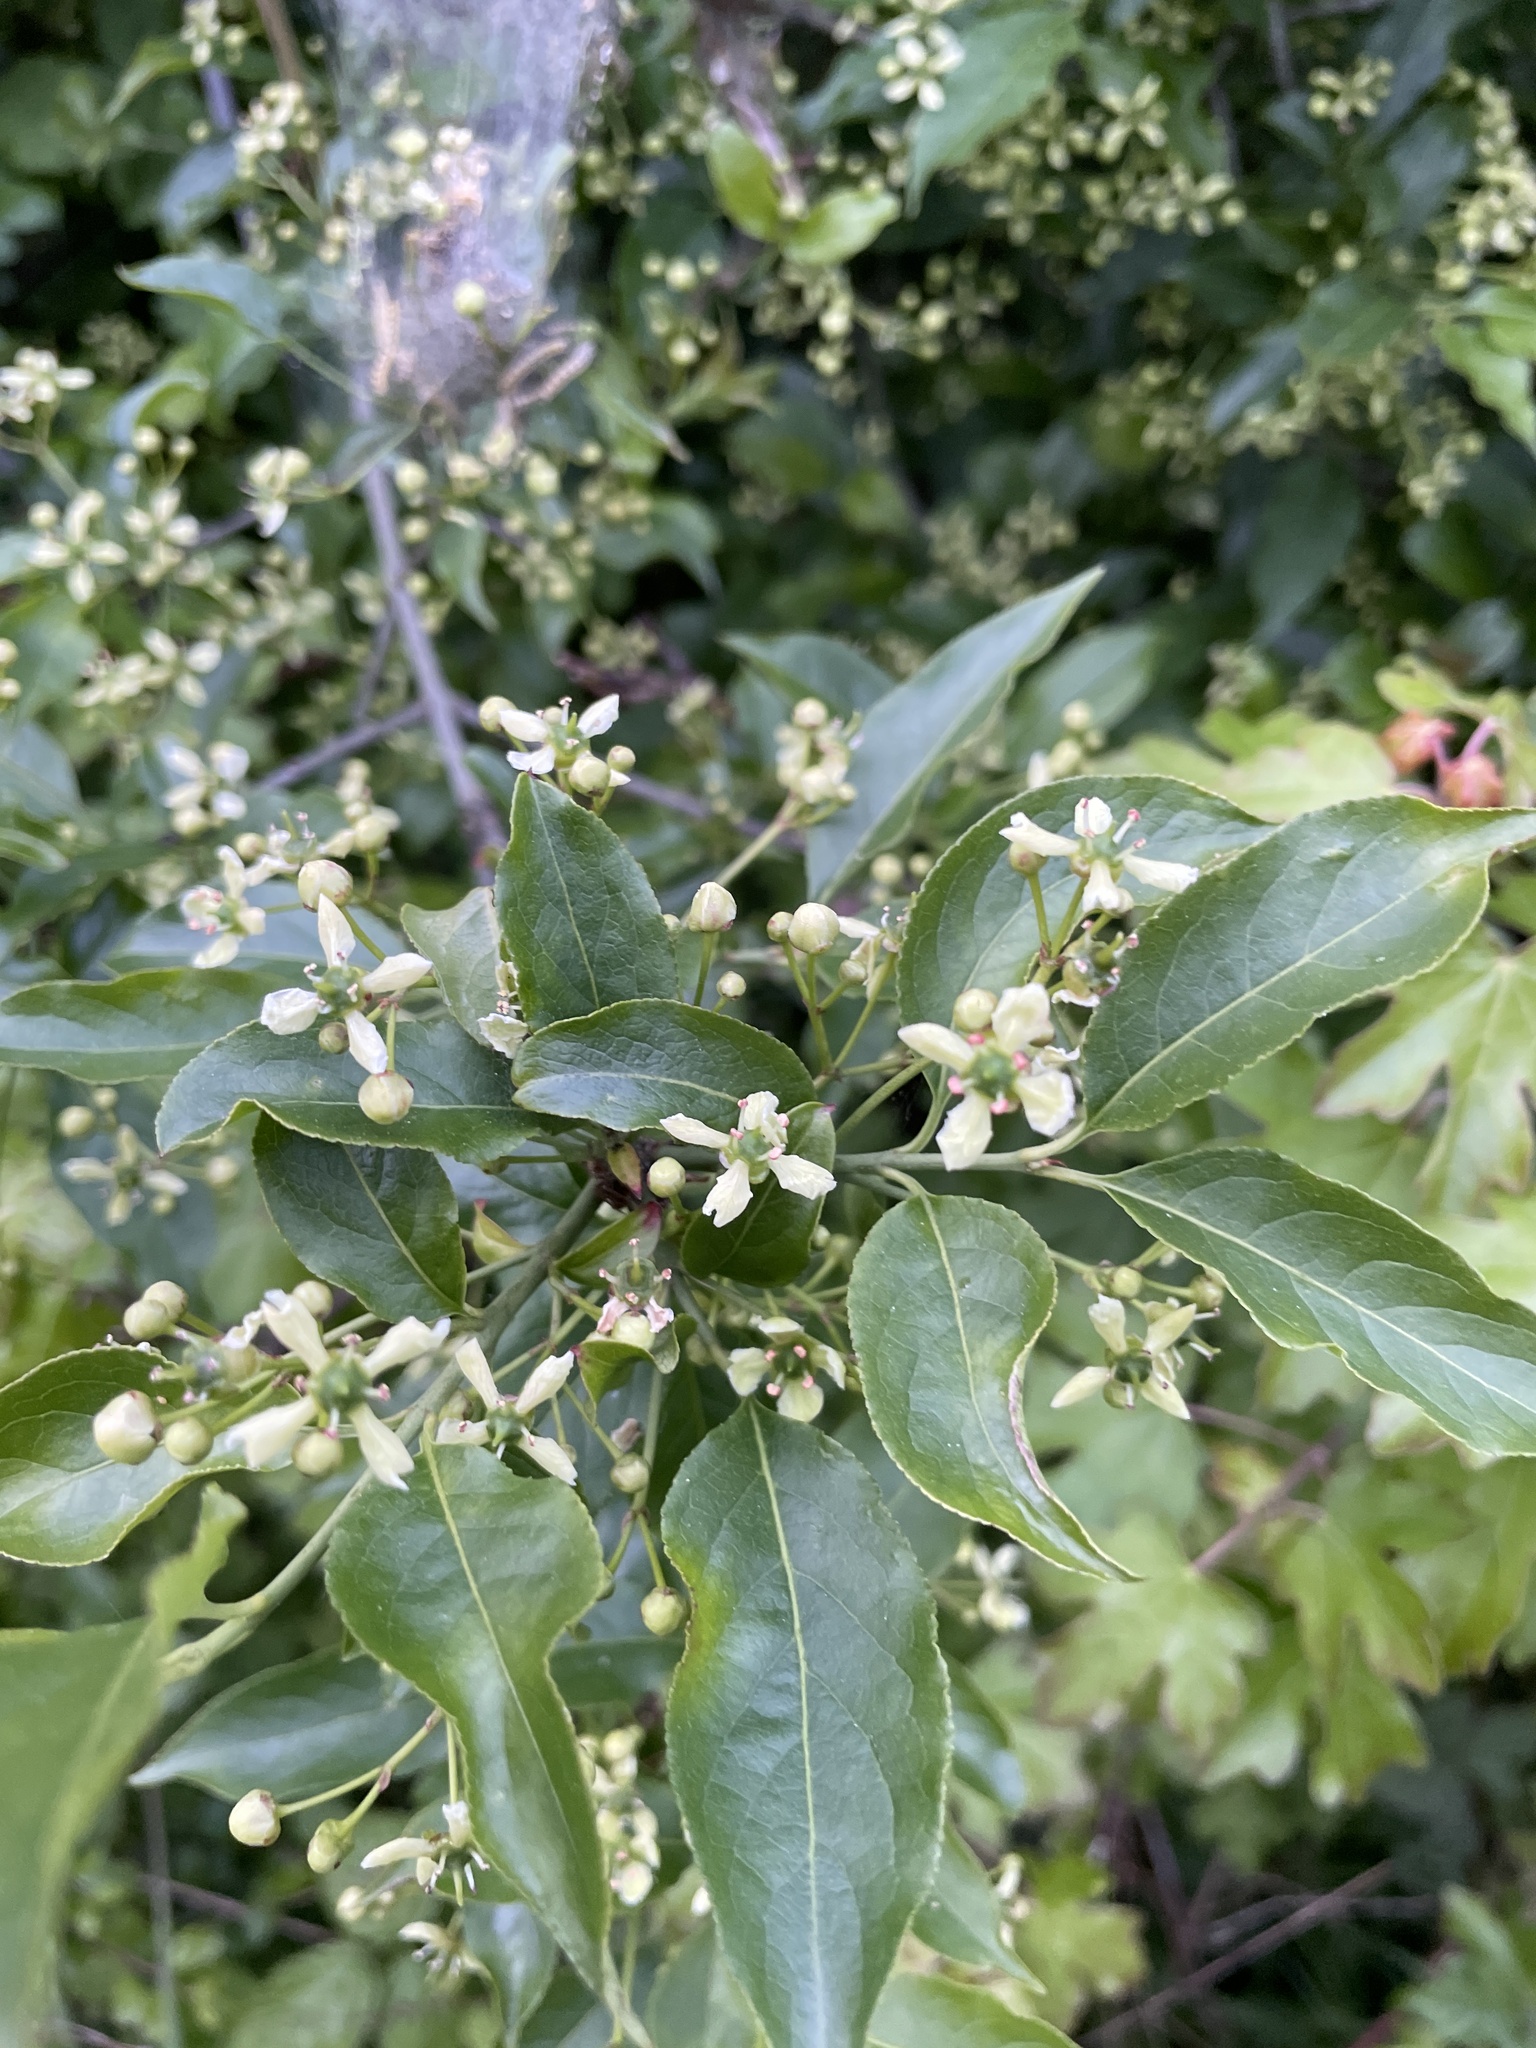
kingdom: Plantae
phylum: Tracheophyta
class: Magnoliopsida
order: Celastrales
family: Celastraceae
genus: Euonymus
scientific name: Euonymus europaeus
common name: Spindle
